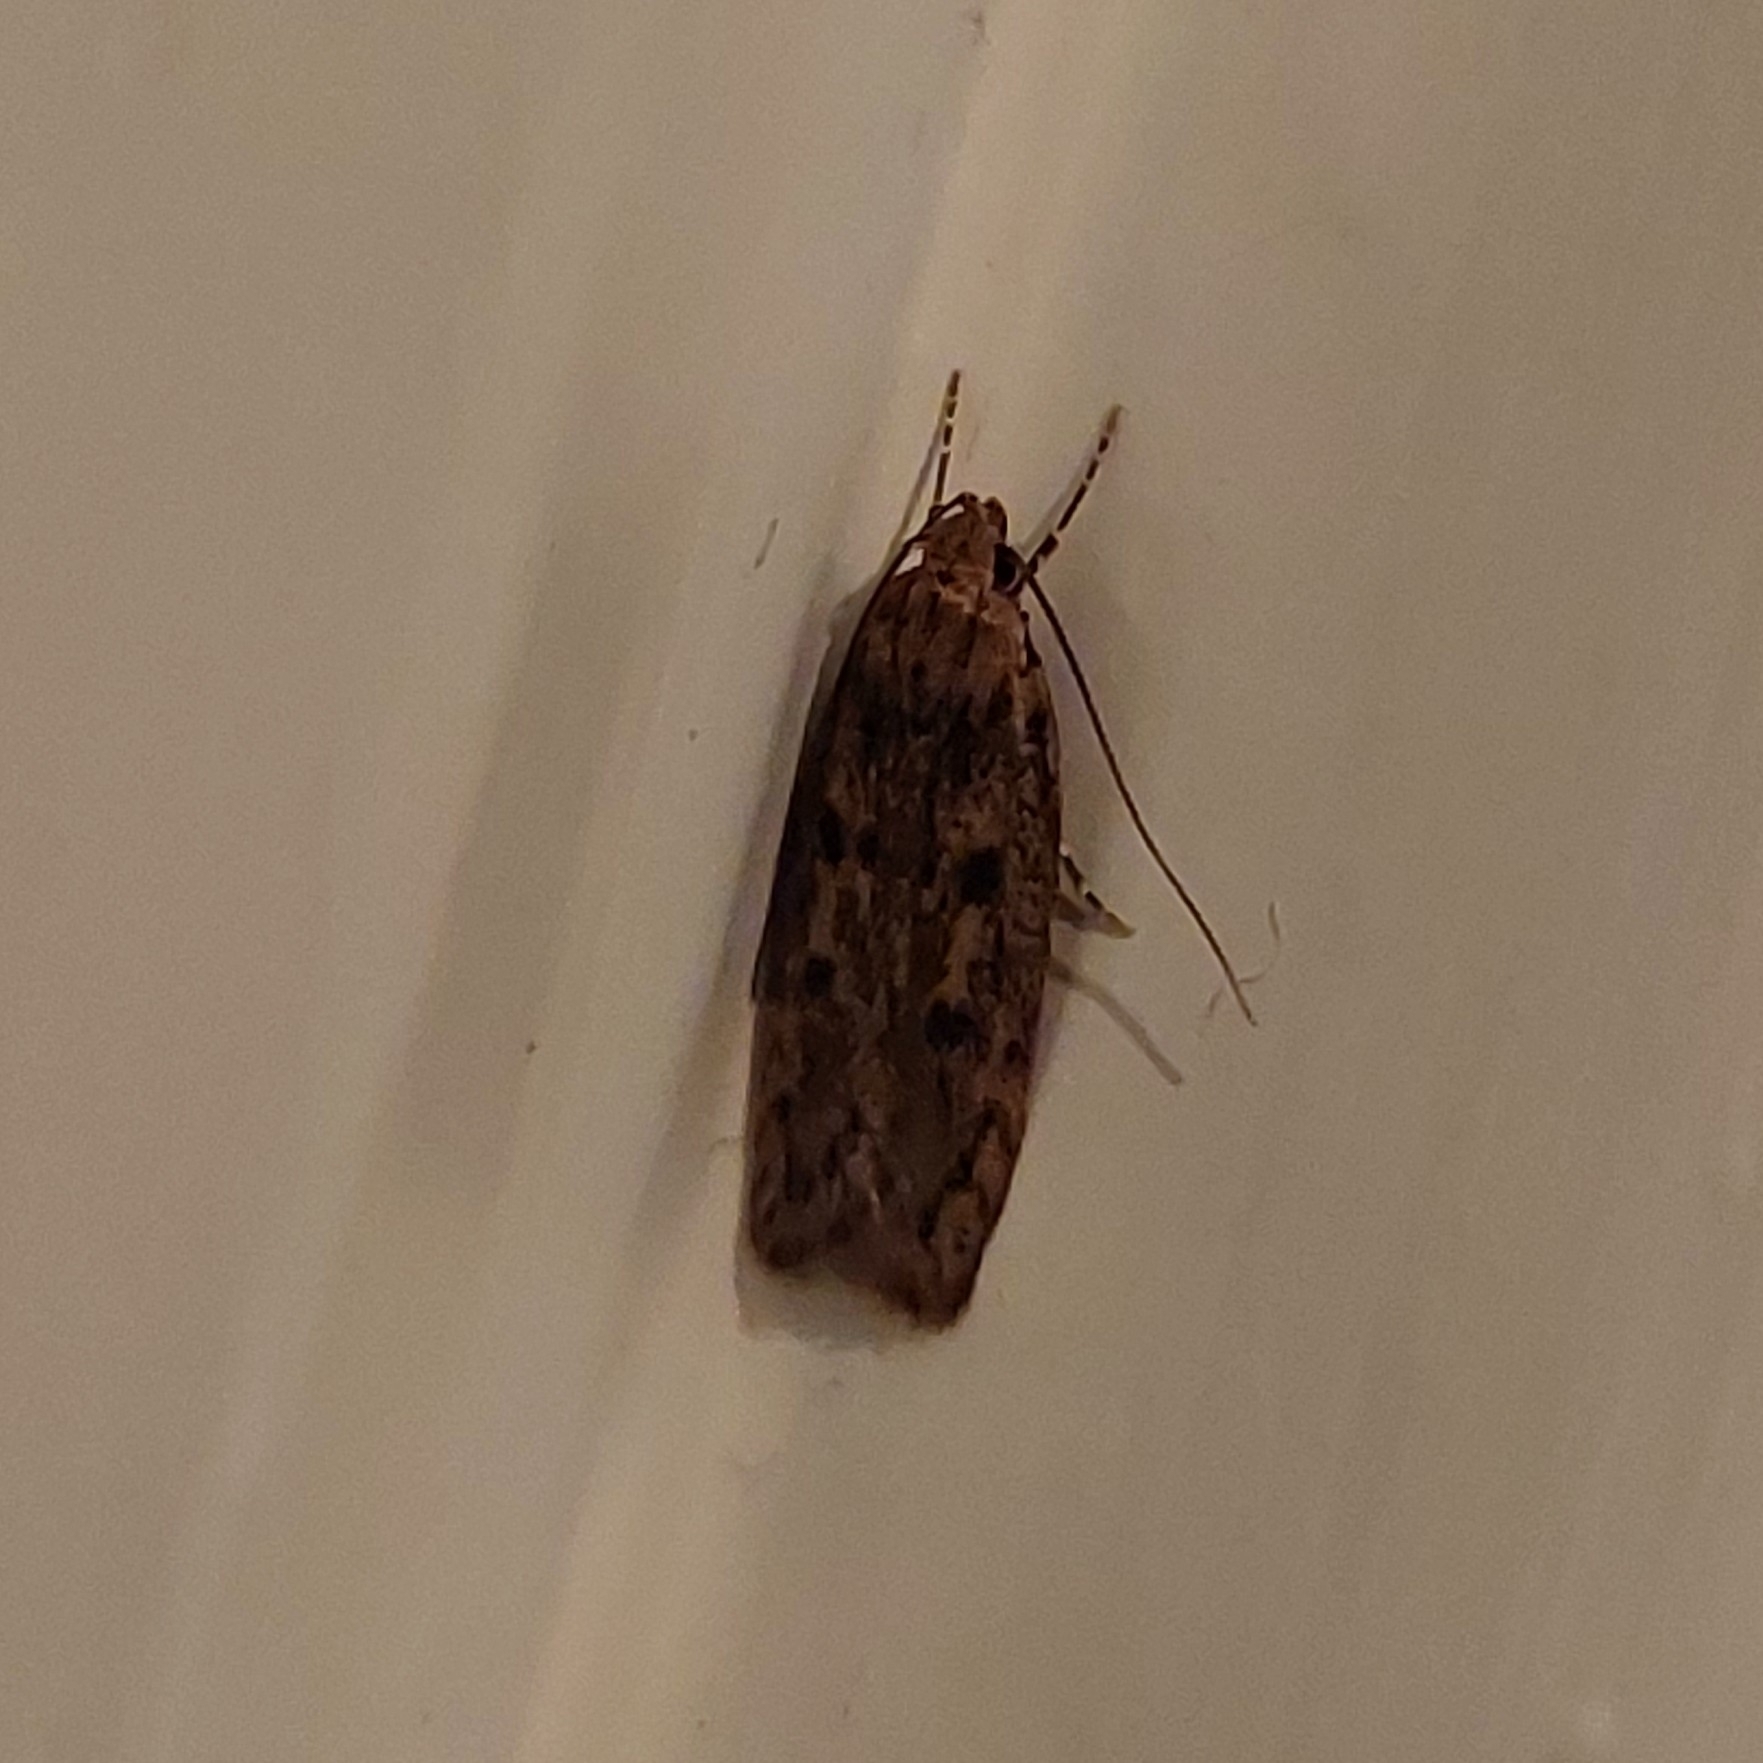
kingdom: Animalia
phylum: Arthropoda
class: Insecta
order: Lepidoptera
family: Oecophoridae
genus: Hofmannophila
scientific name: Hofmannophila pseudospretella
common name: Brown house moth
